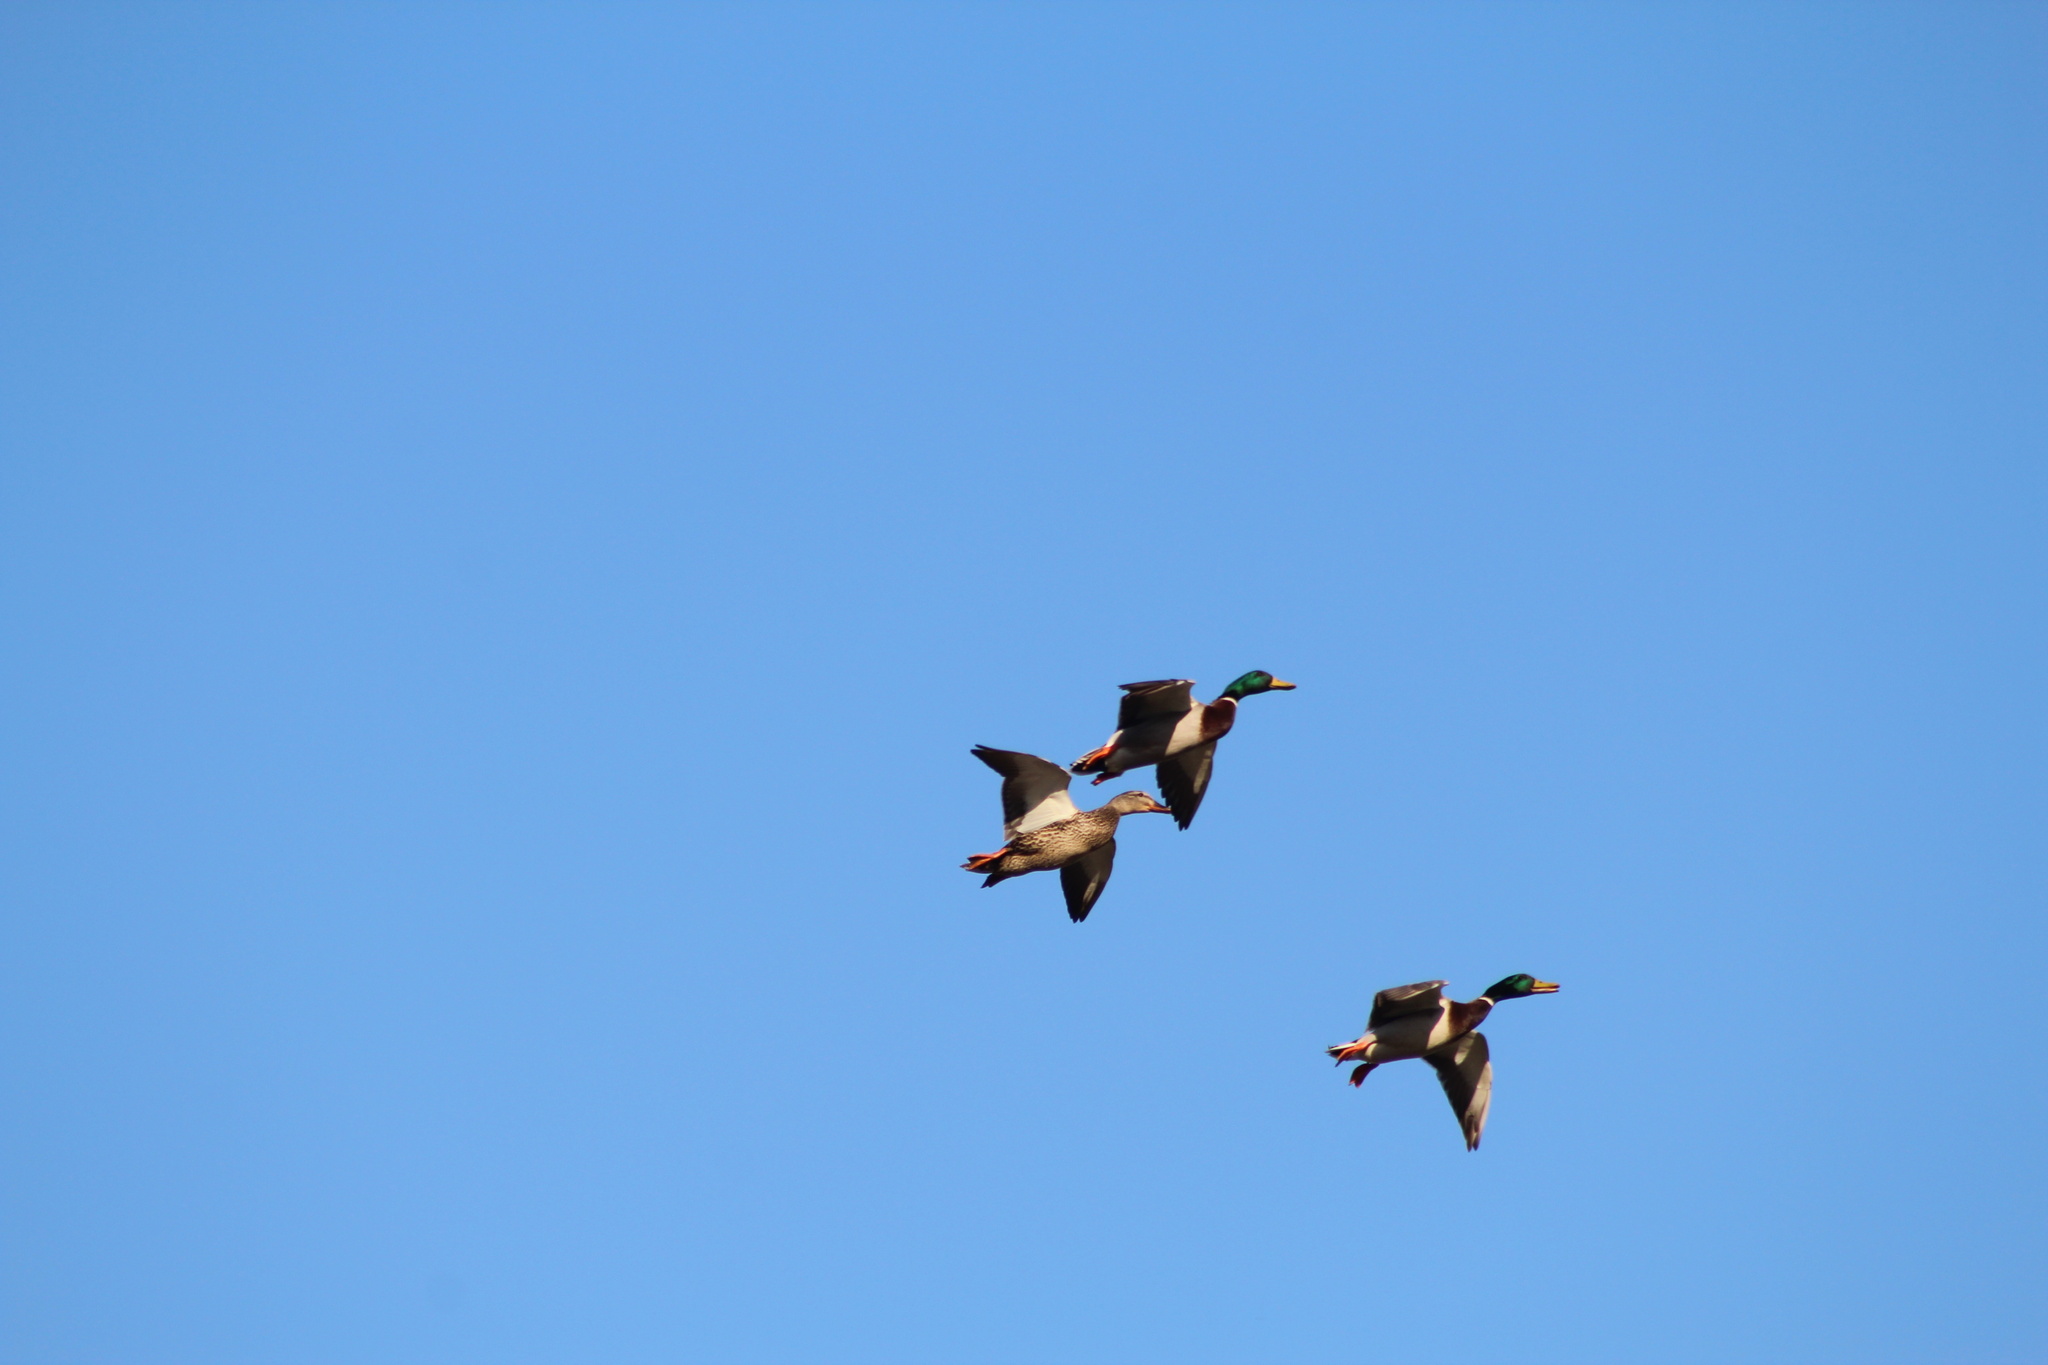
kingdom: Animalia
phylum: Chordata
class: Aves
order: Anseriformes
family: Anatidae
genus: Anas
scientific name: Anas platyrhynchos
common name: Mallard
